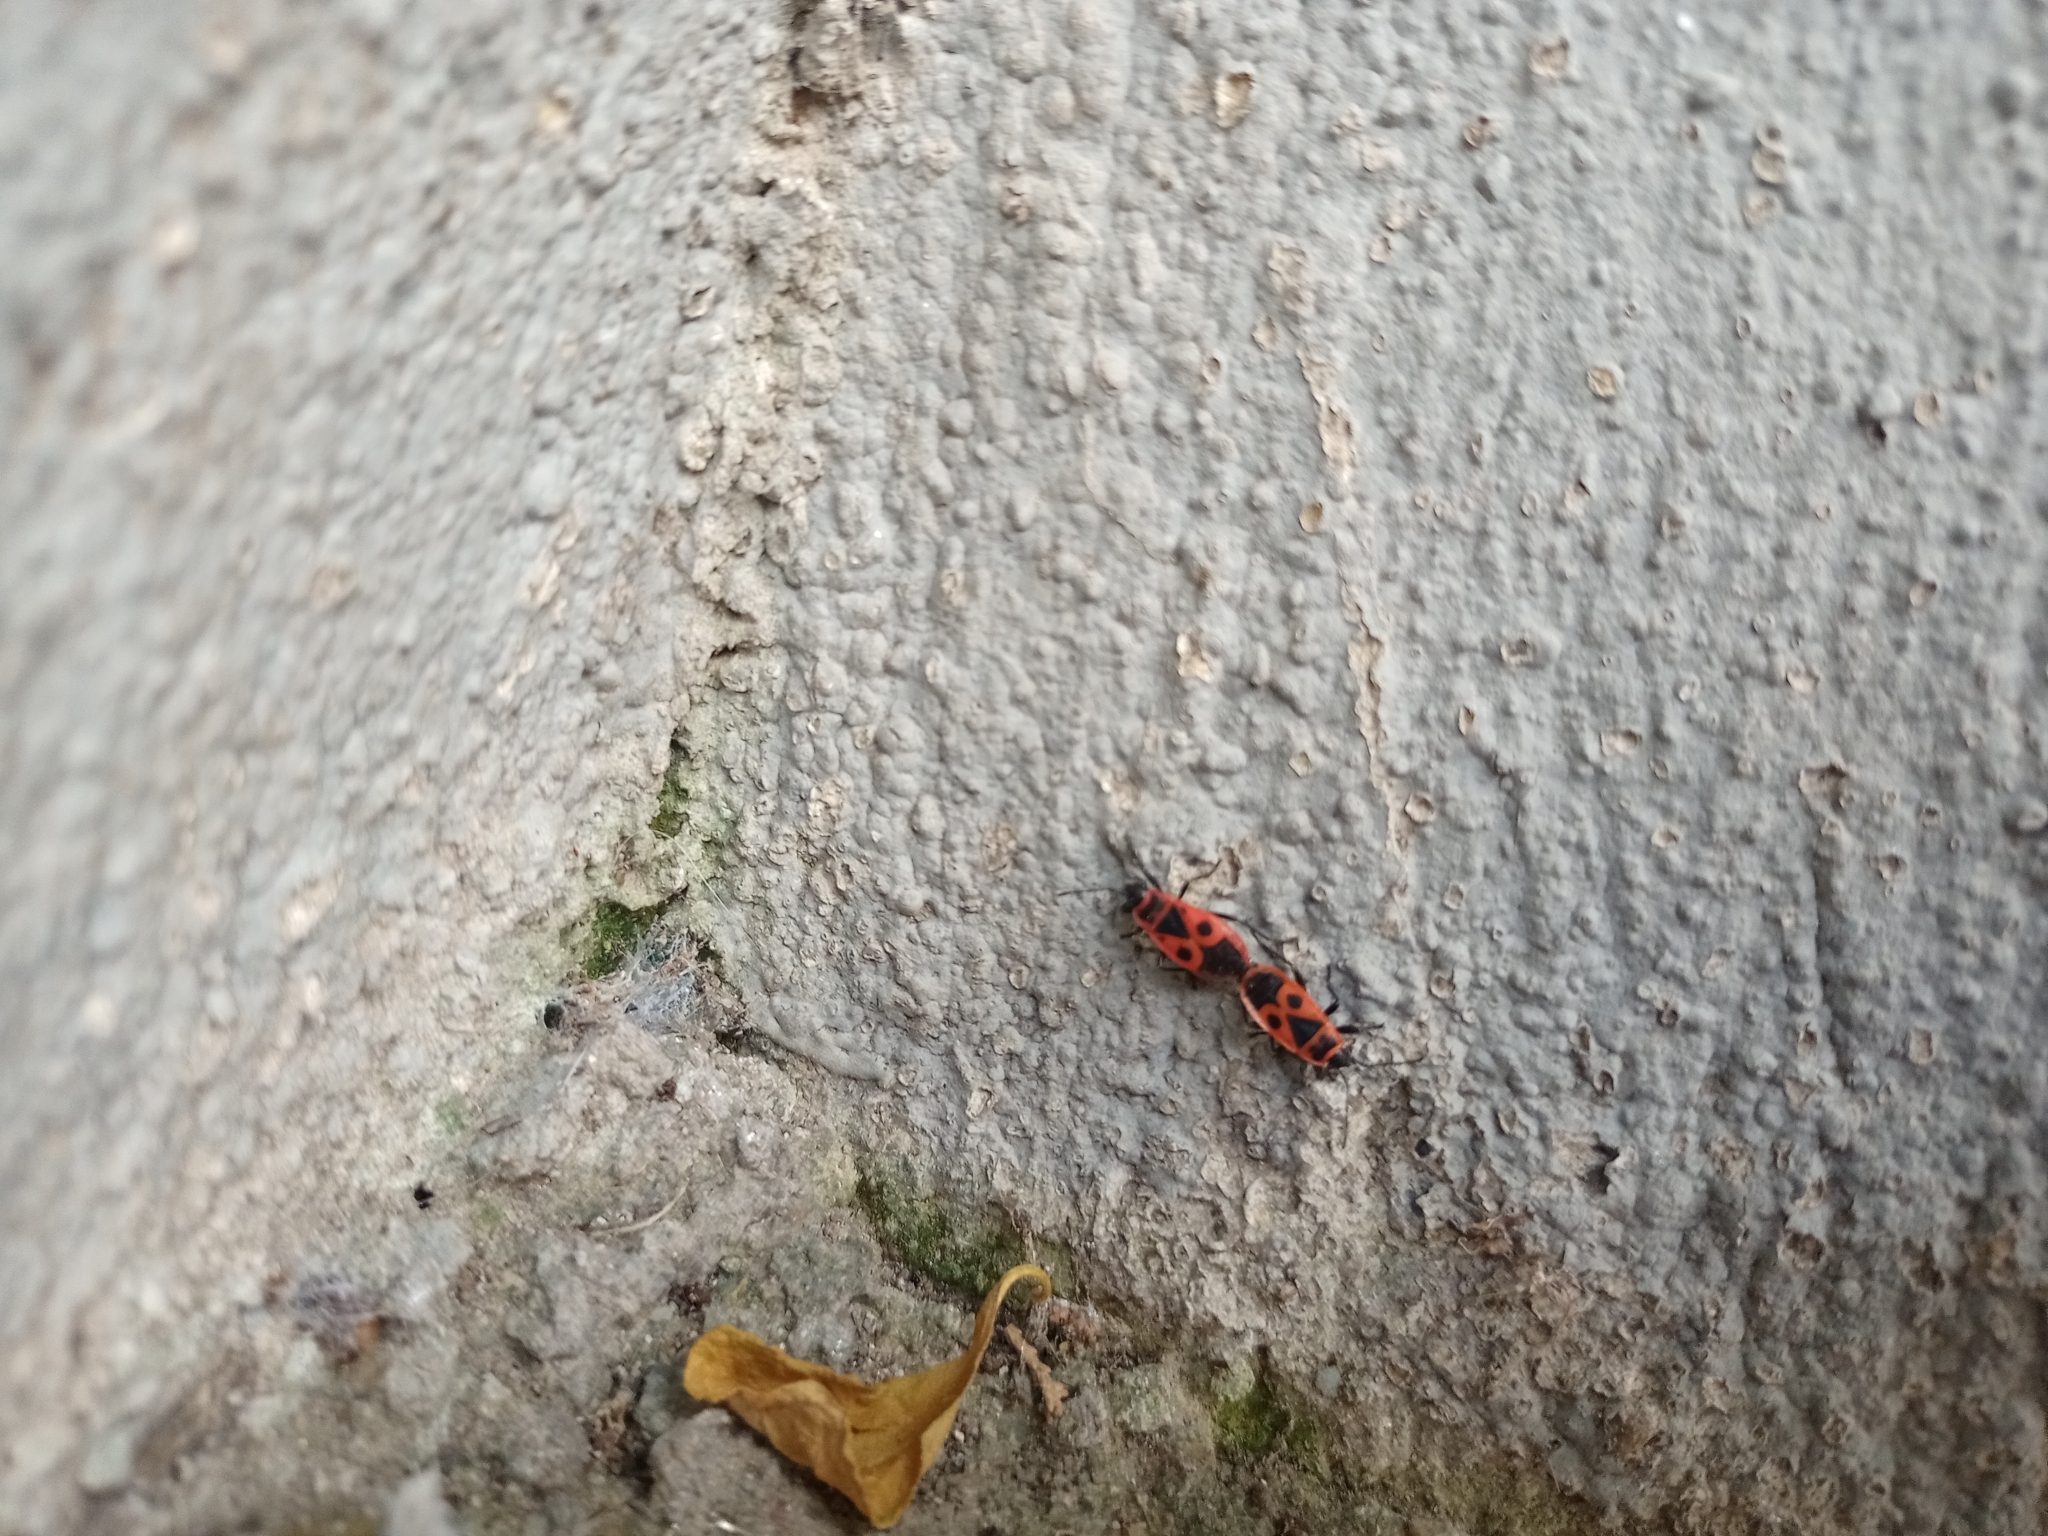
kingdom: Animalia
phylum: Arthropoda
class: Insecta
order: Hemiptera
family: Pyrrhocoridae
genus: Pyrrhocoris
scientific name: Pyrrhocoris apterus
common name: Firebug
